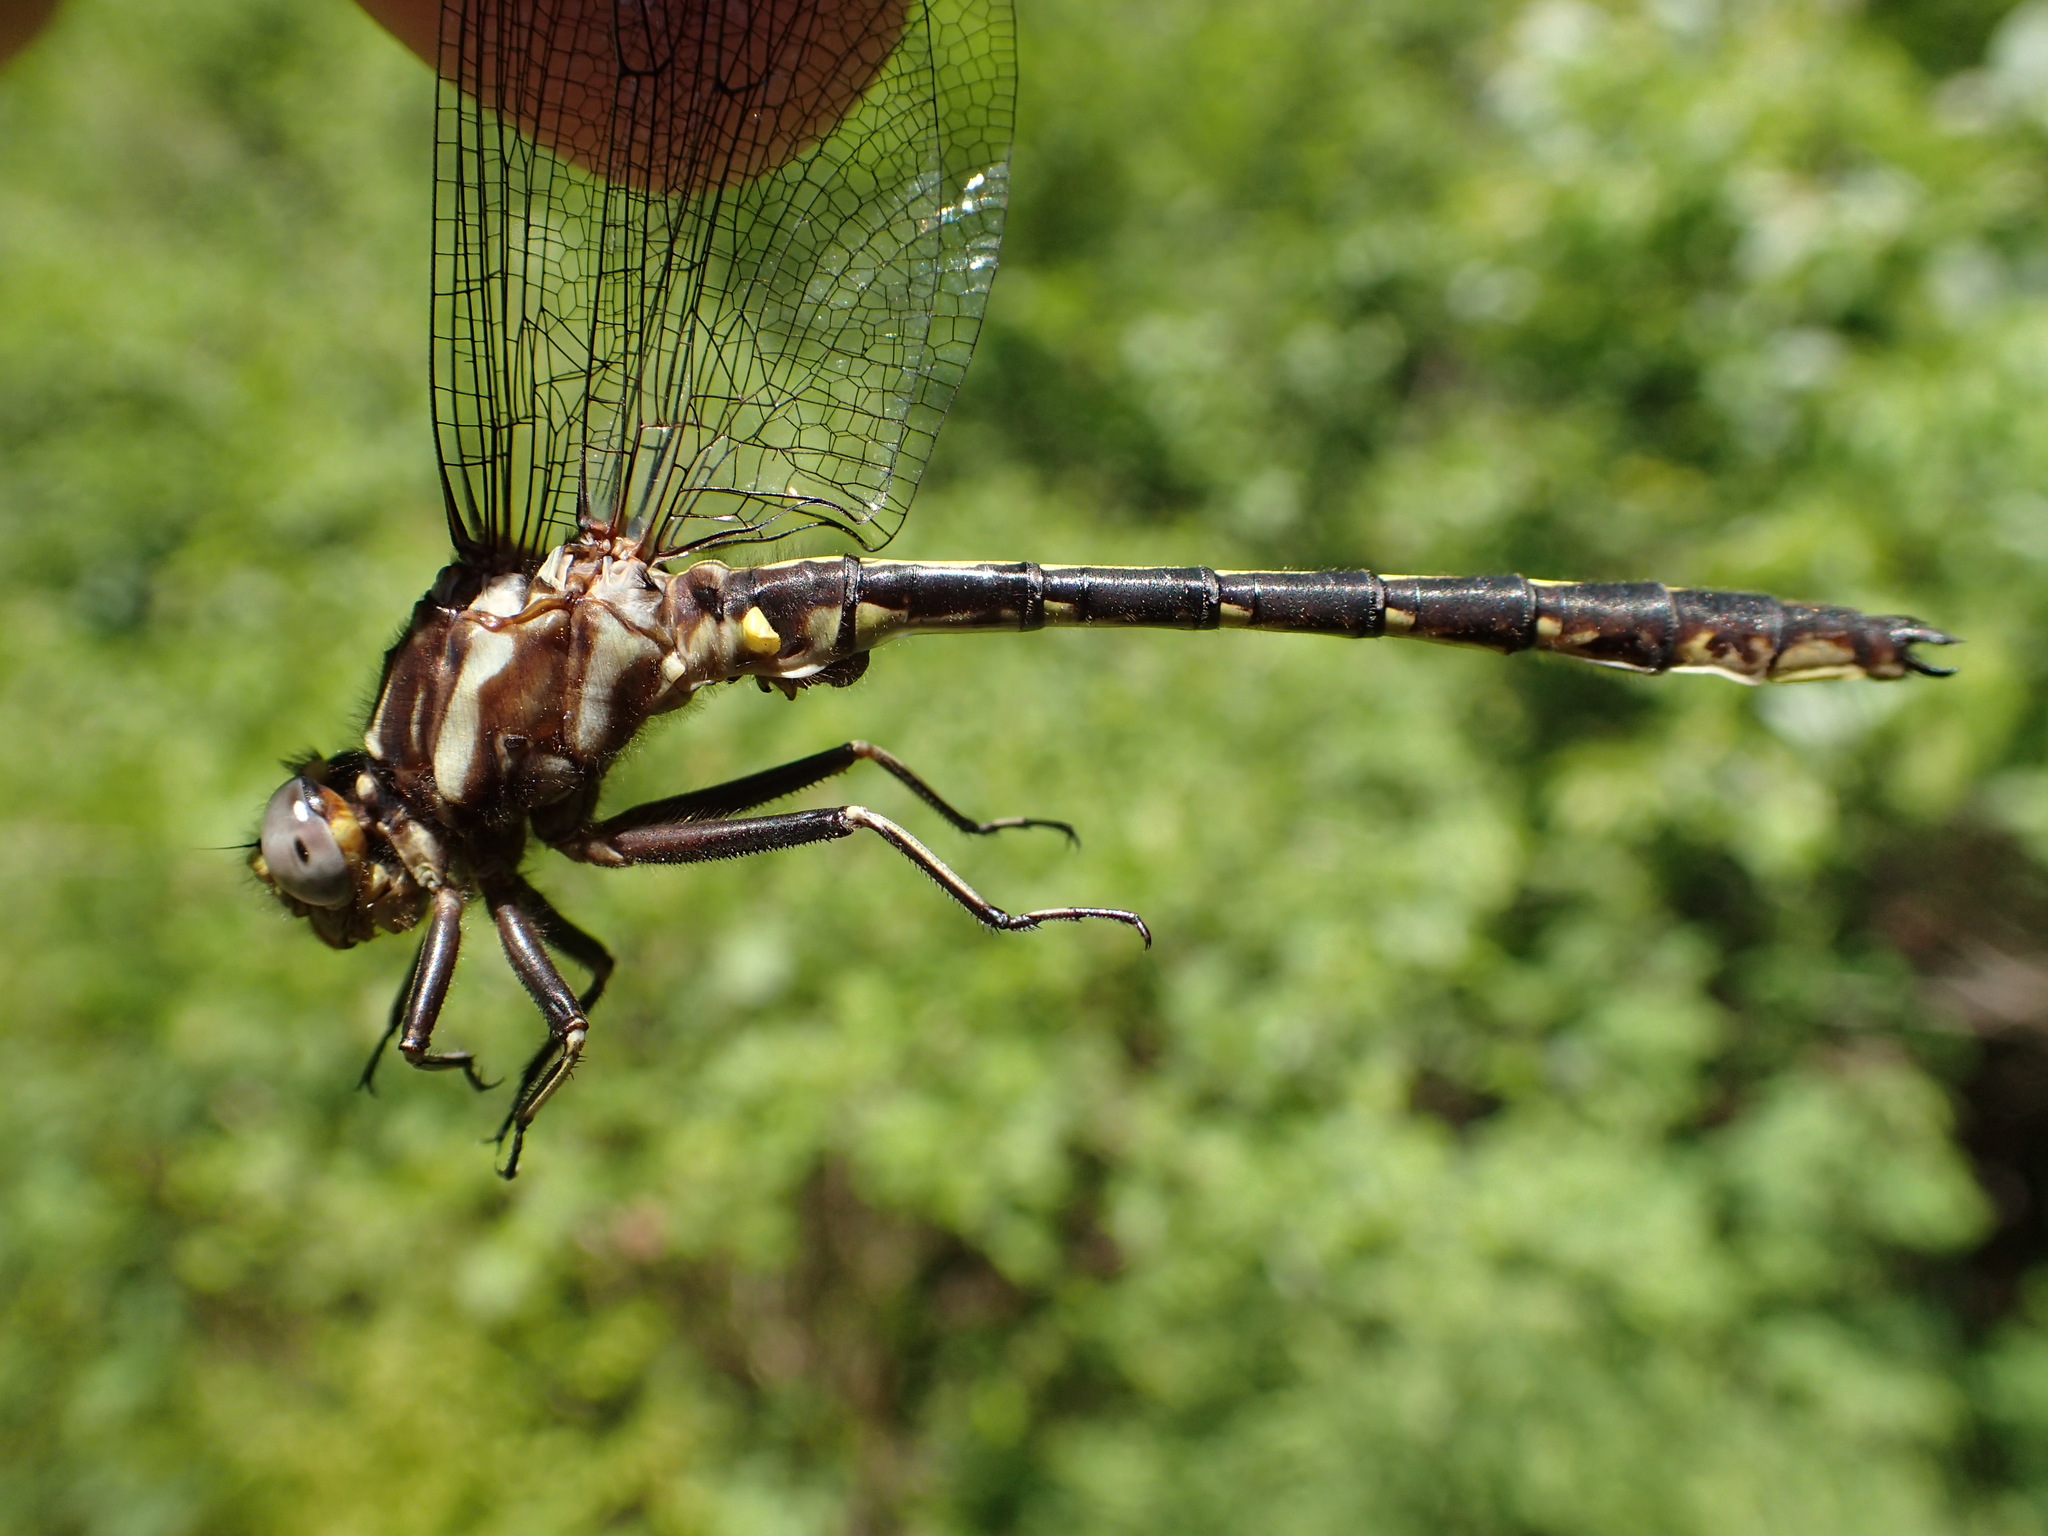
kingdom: Animalia
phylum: Arthropoda
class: Insecta
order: Odonata
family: Gomphidae
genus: Phanogomphus
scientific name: Phanogomphus lividus
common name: Ashy clubtail
